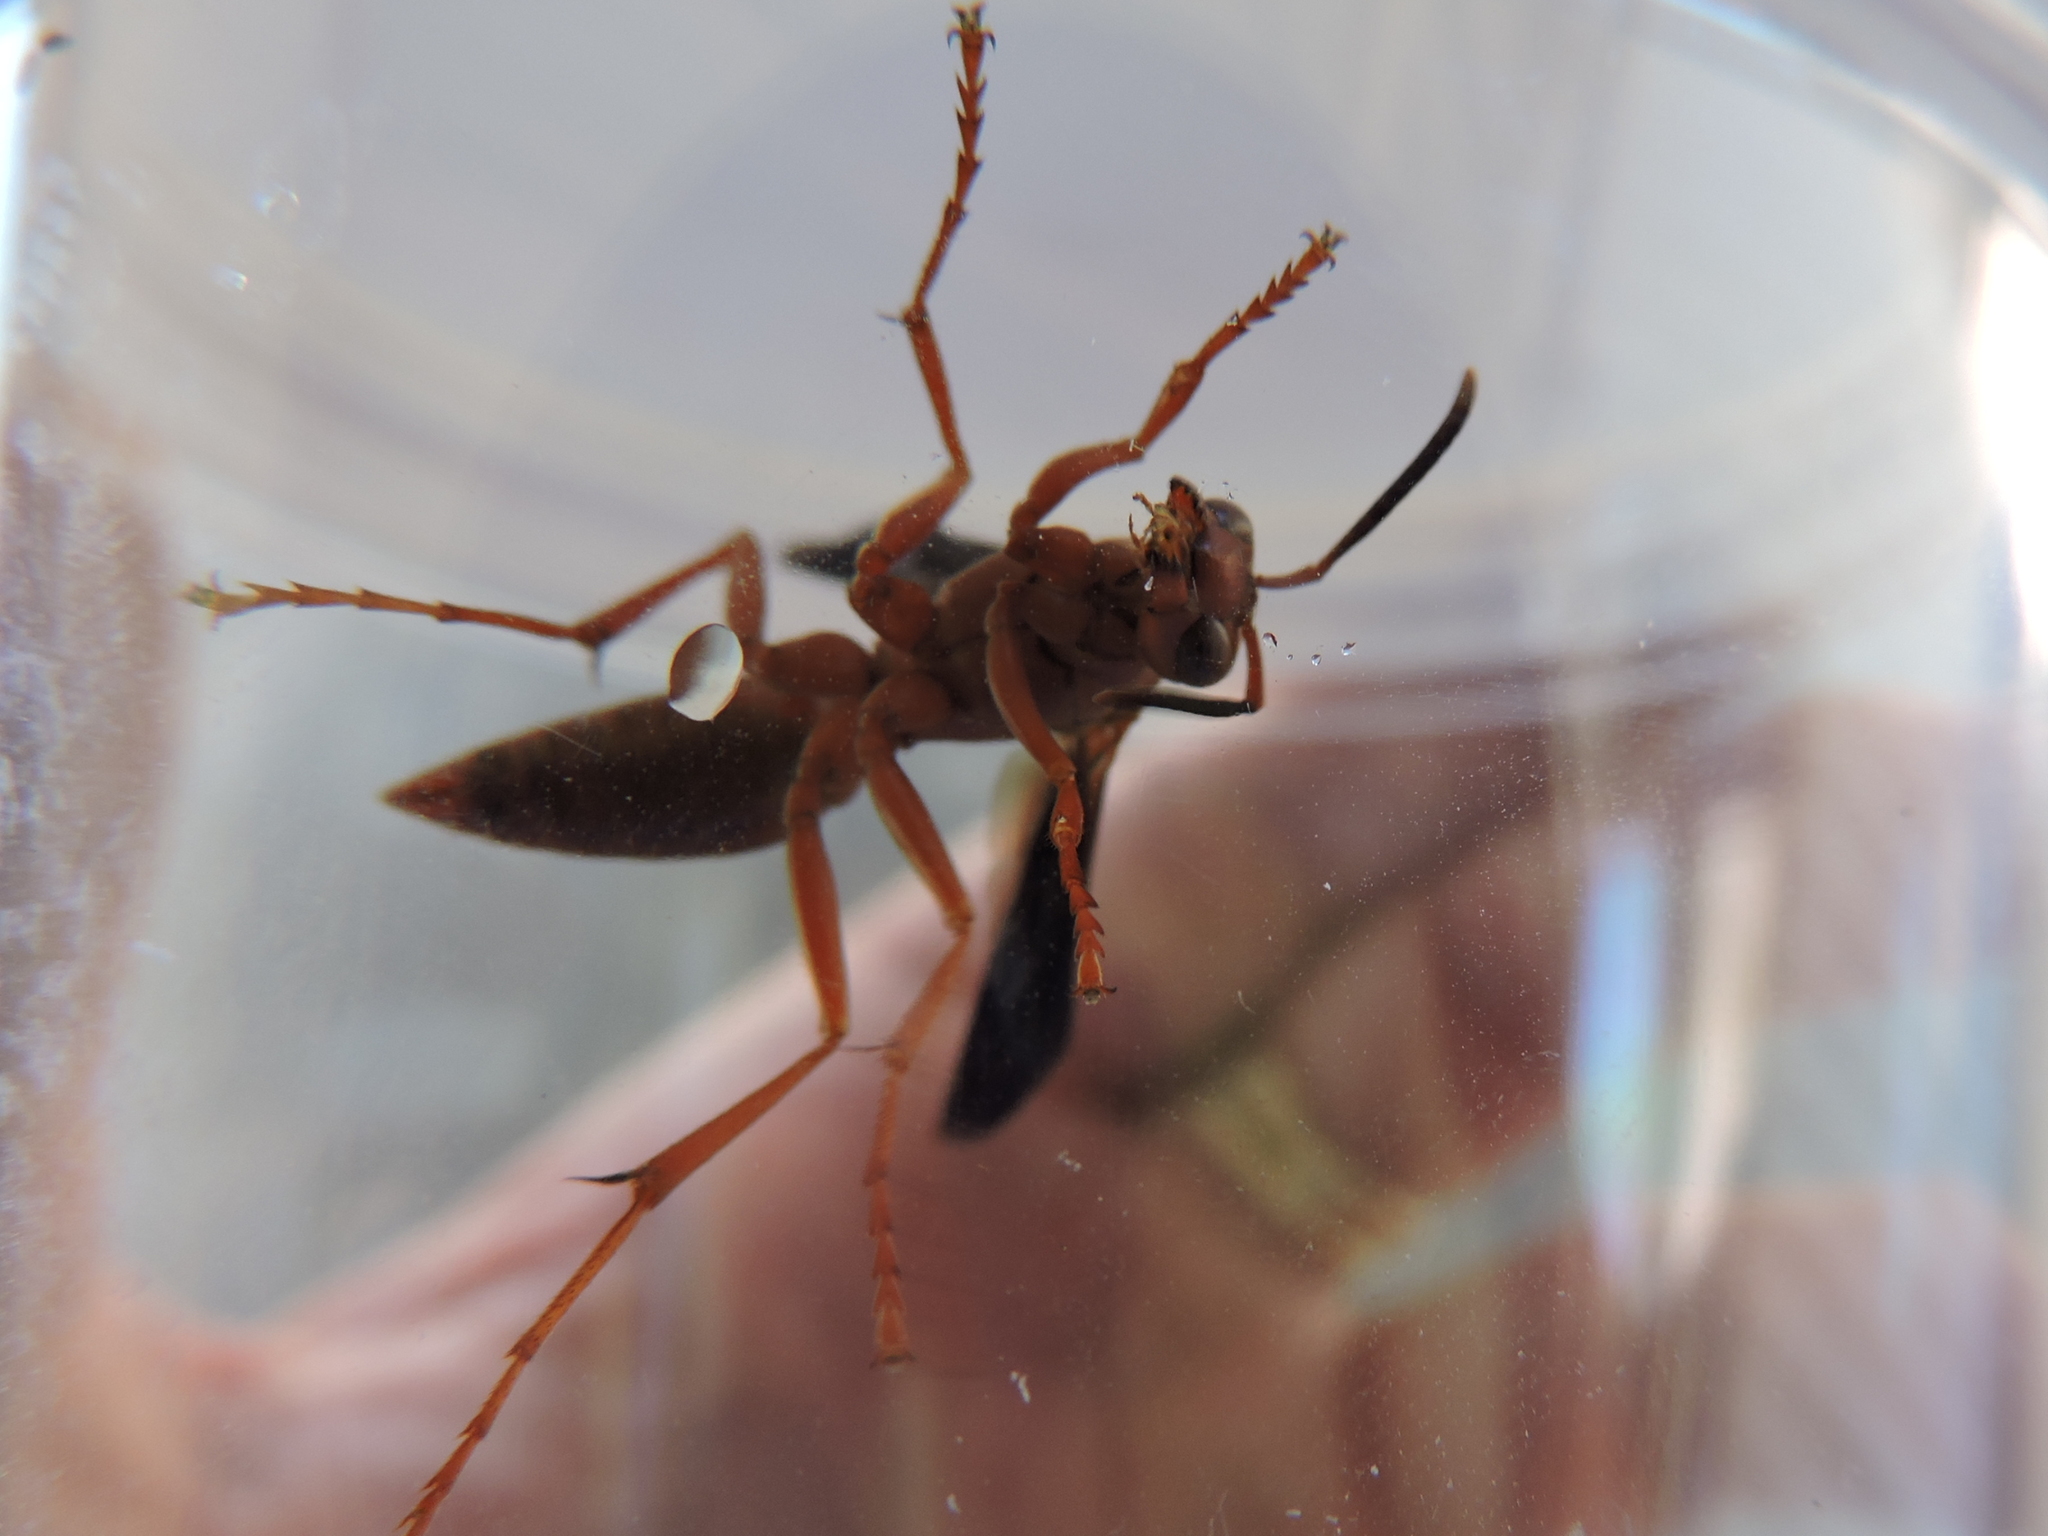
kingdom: Animalia
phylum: Arthropoda
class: Insecta
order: Hymenoptera
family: Eumenidae
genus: Polistes
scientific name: Polistes carolina
